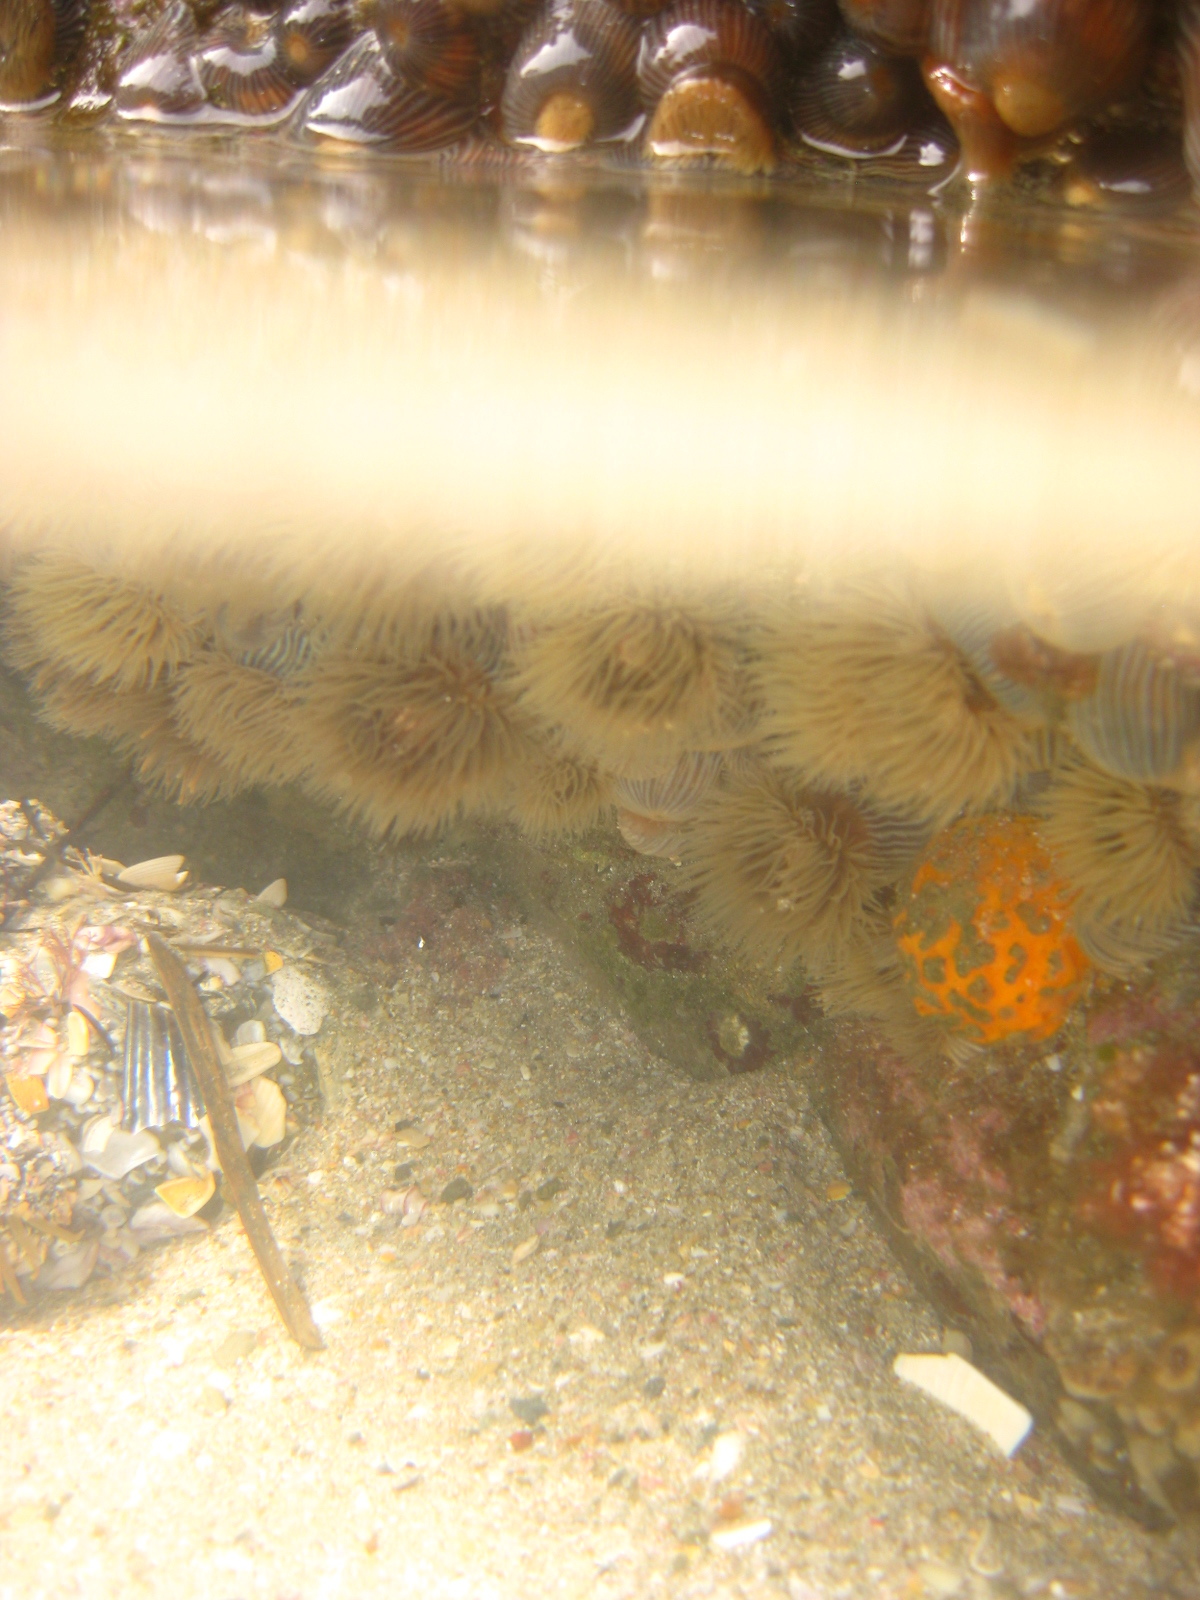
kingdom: Animalia
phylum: Cnidaria
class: Anthozoa
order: Actiniaria
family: Diadumenidae
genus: Diadumene
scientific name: Diadumene neozelanica
